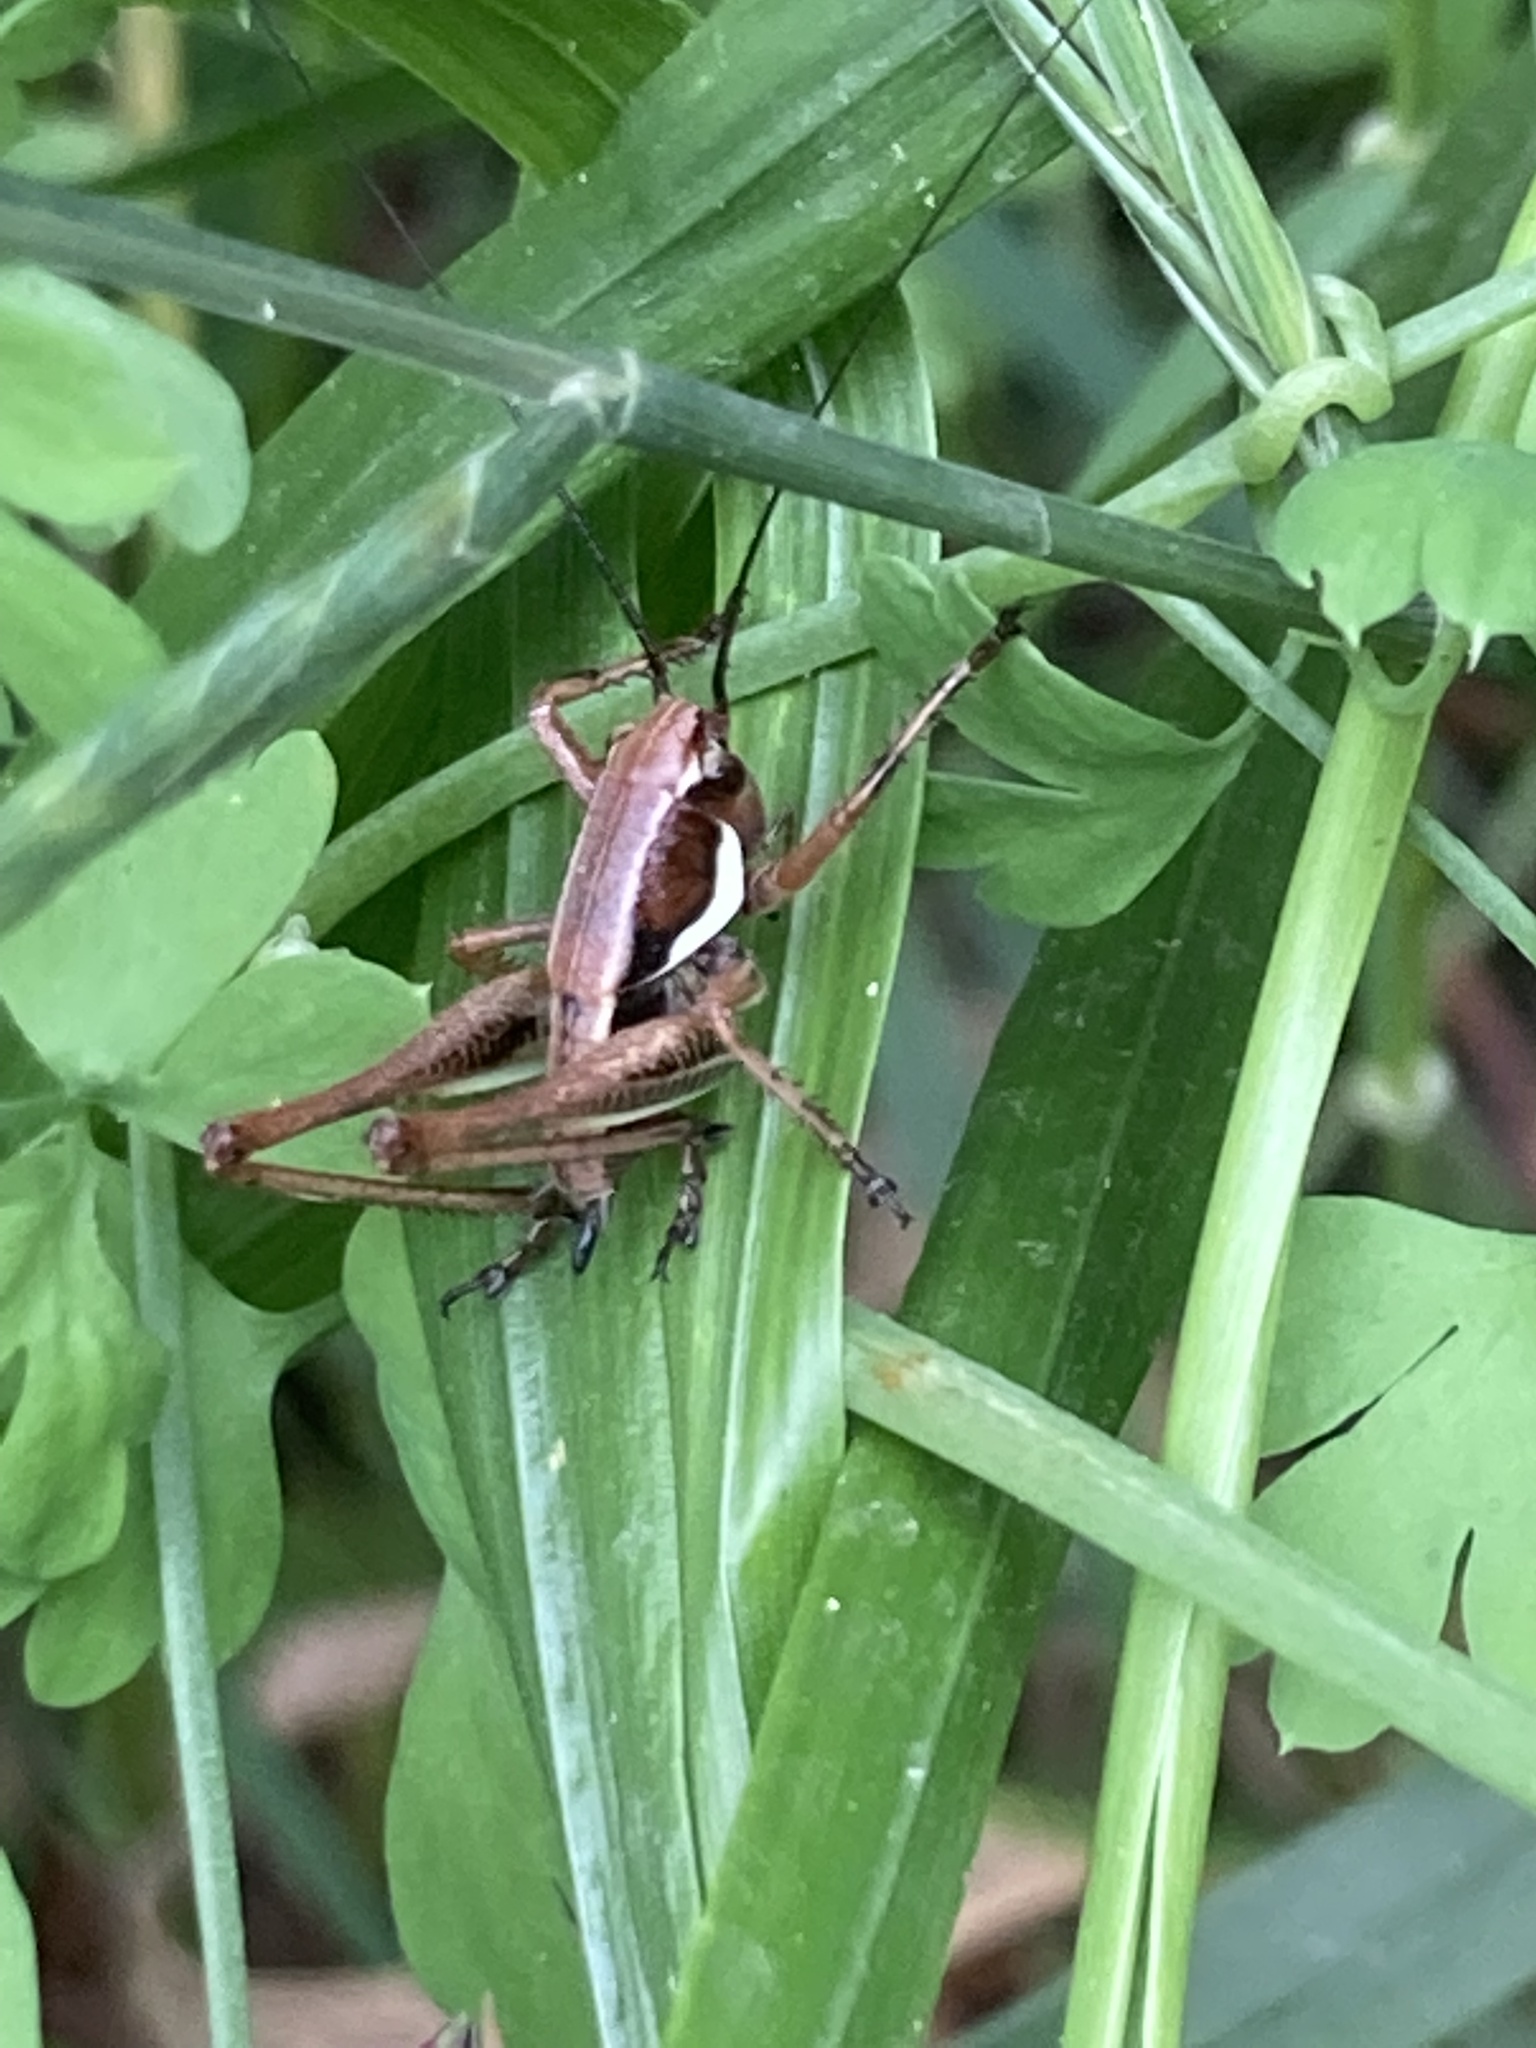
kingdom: Animalia
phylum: Arthropoda
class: Insecta
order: Orthoptera
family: Tettigoniidae
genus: Eupholidoptera
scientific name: Eupholidoptera smyrnensis
